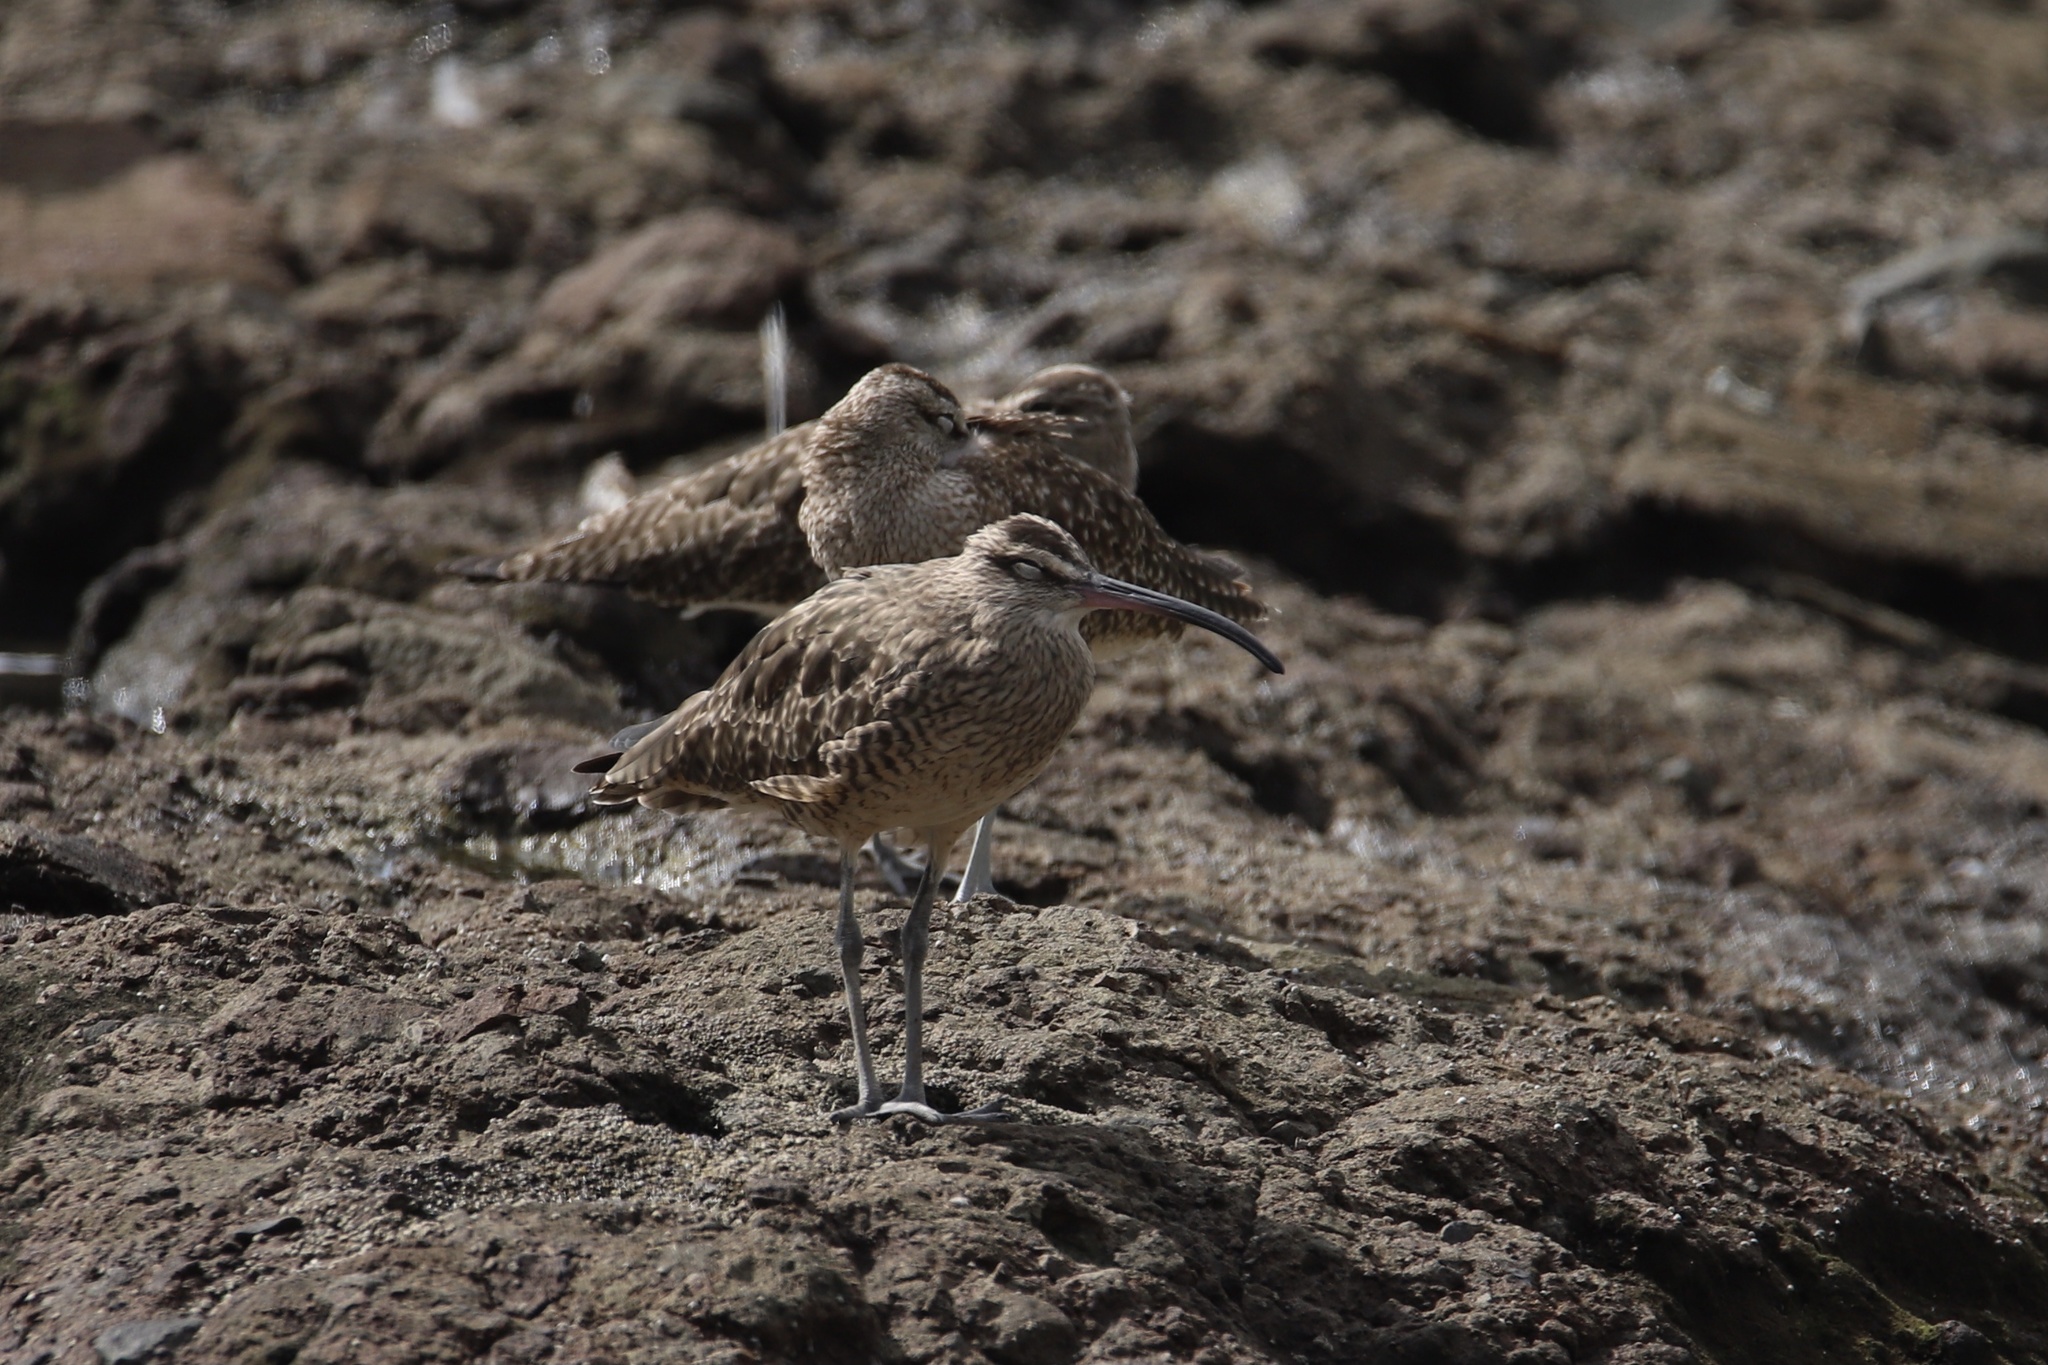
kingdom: Animalia
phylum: Chordata
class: Aves
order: Charadriiformes
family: Scolopacidae
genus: Numenius
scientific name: Numenius phaeopus
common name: Whimbrel
